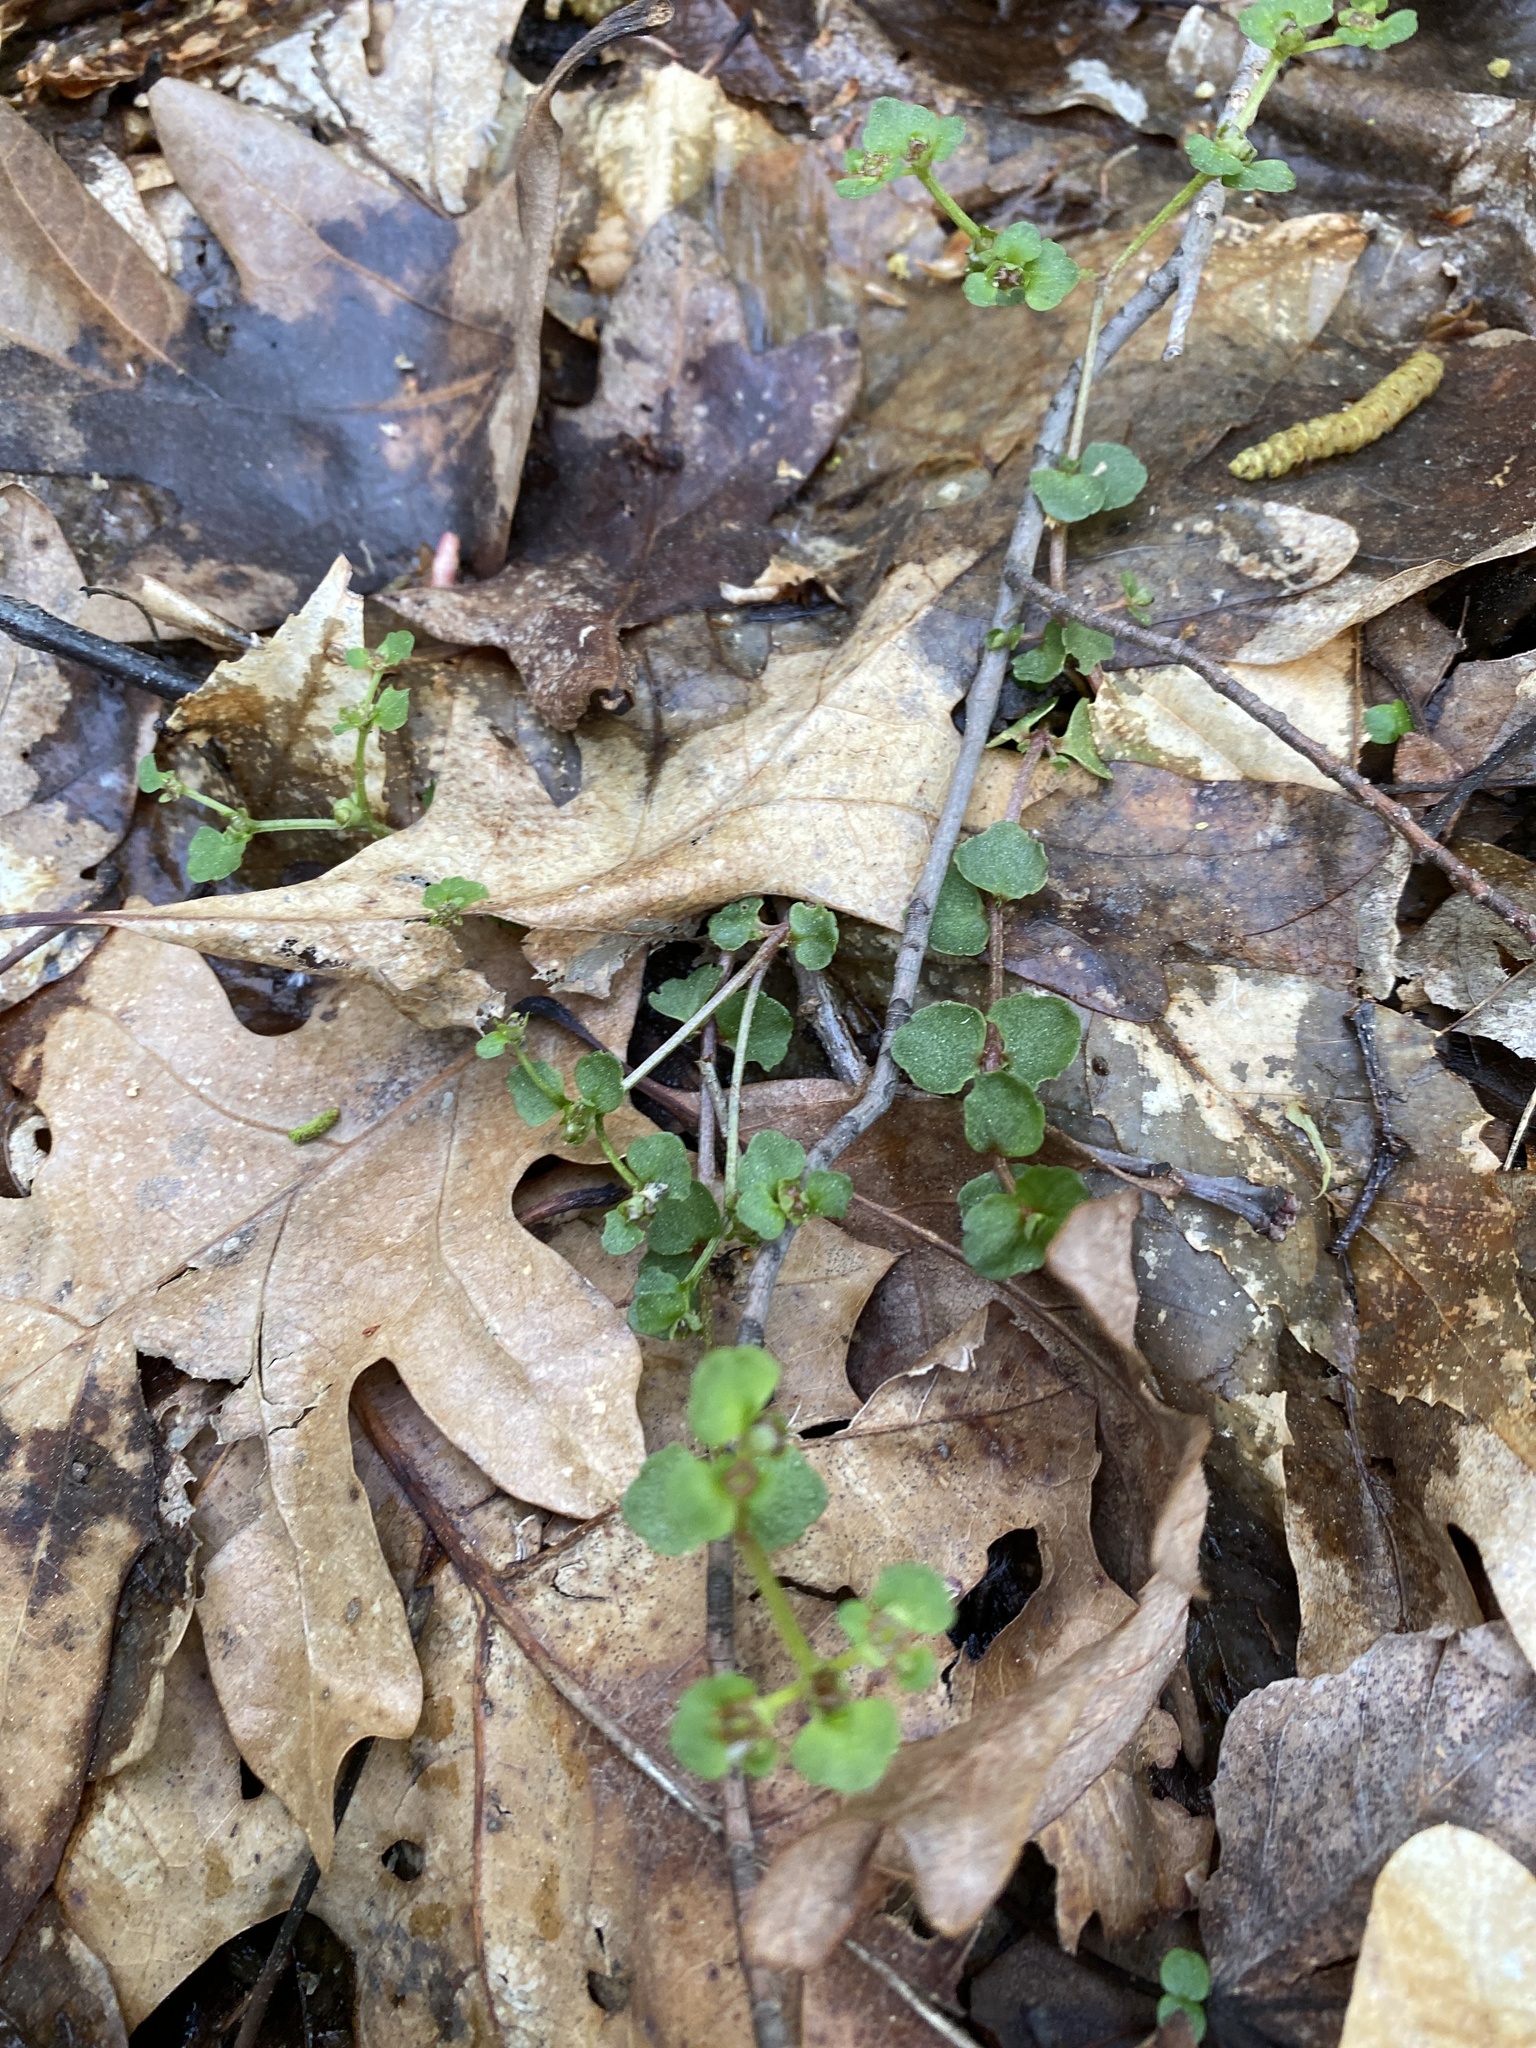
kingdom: Plantae
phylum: Tracheophyta
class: Magnoliopsida
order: Saxifragales
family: Saxifragaceae
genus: Chrysosplenium
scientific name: Chrysosplenium americanum
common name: American golden-saxifrage
